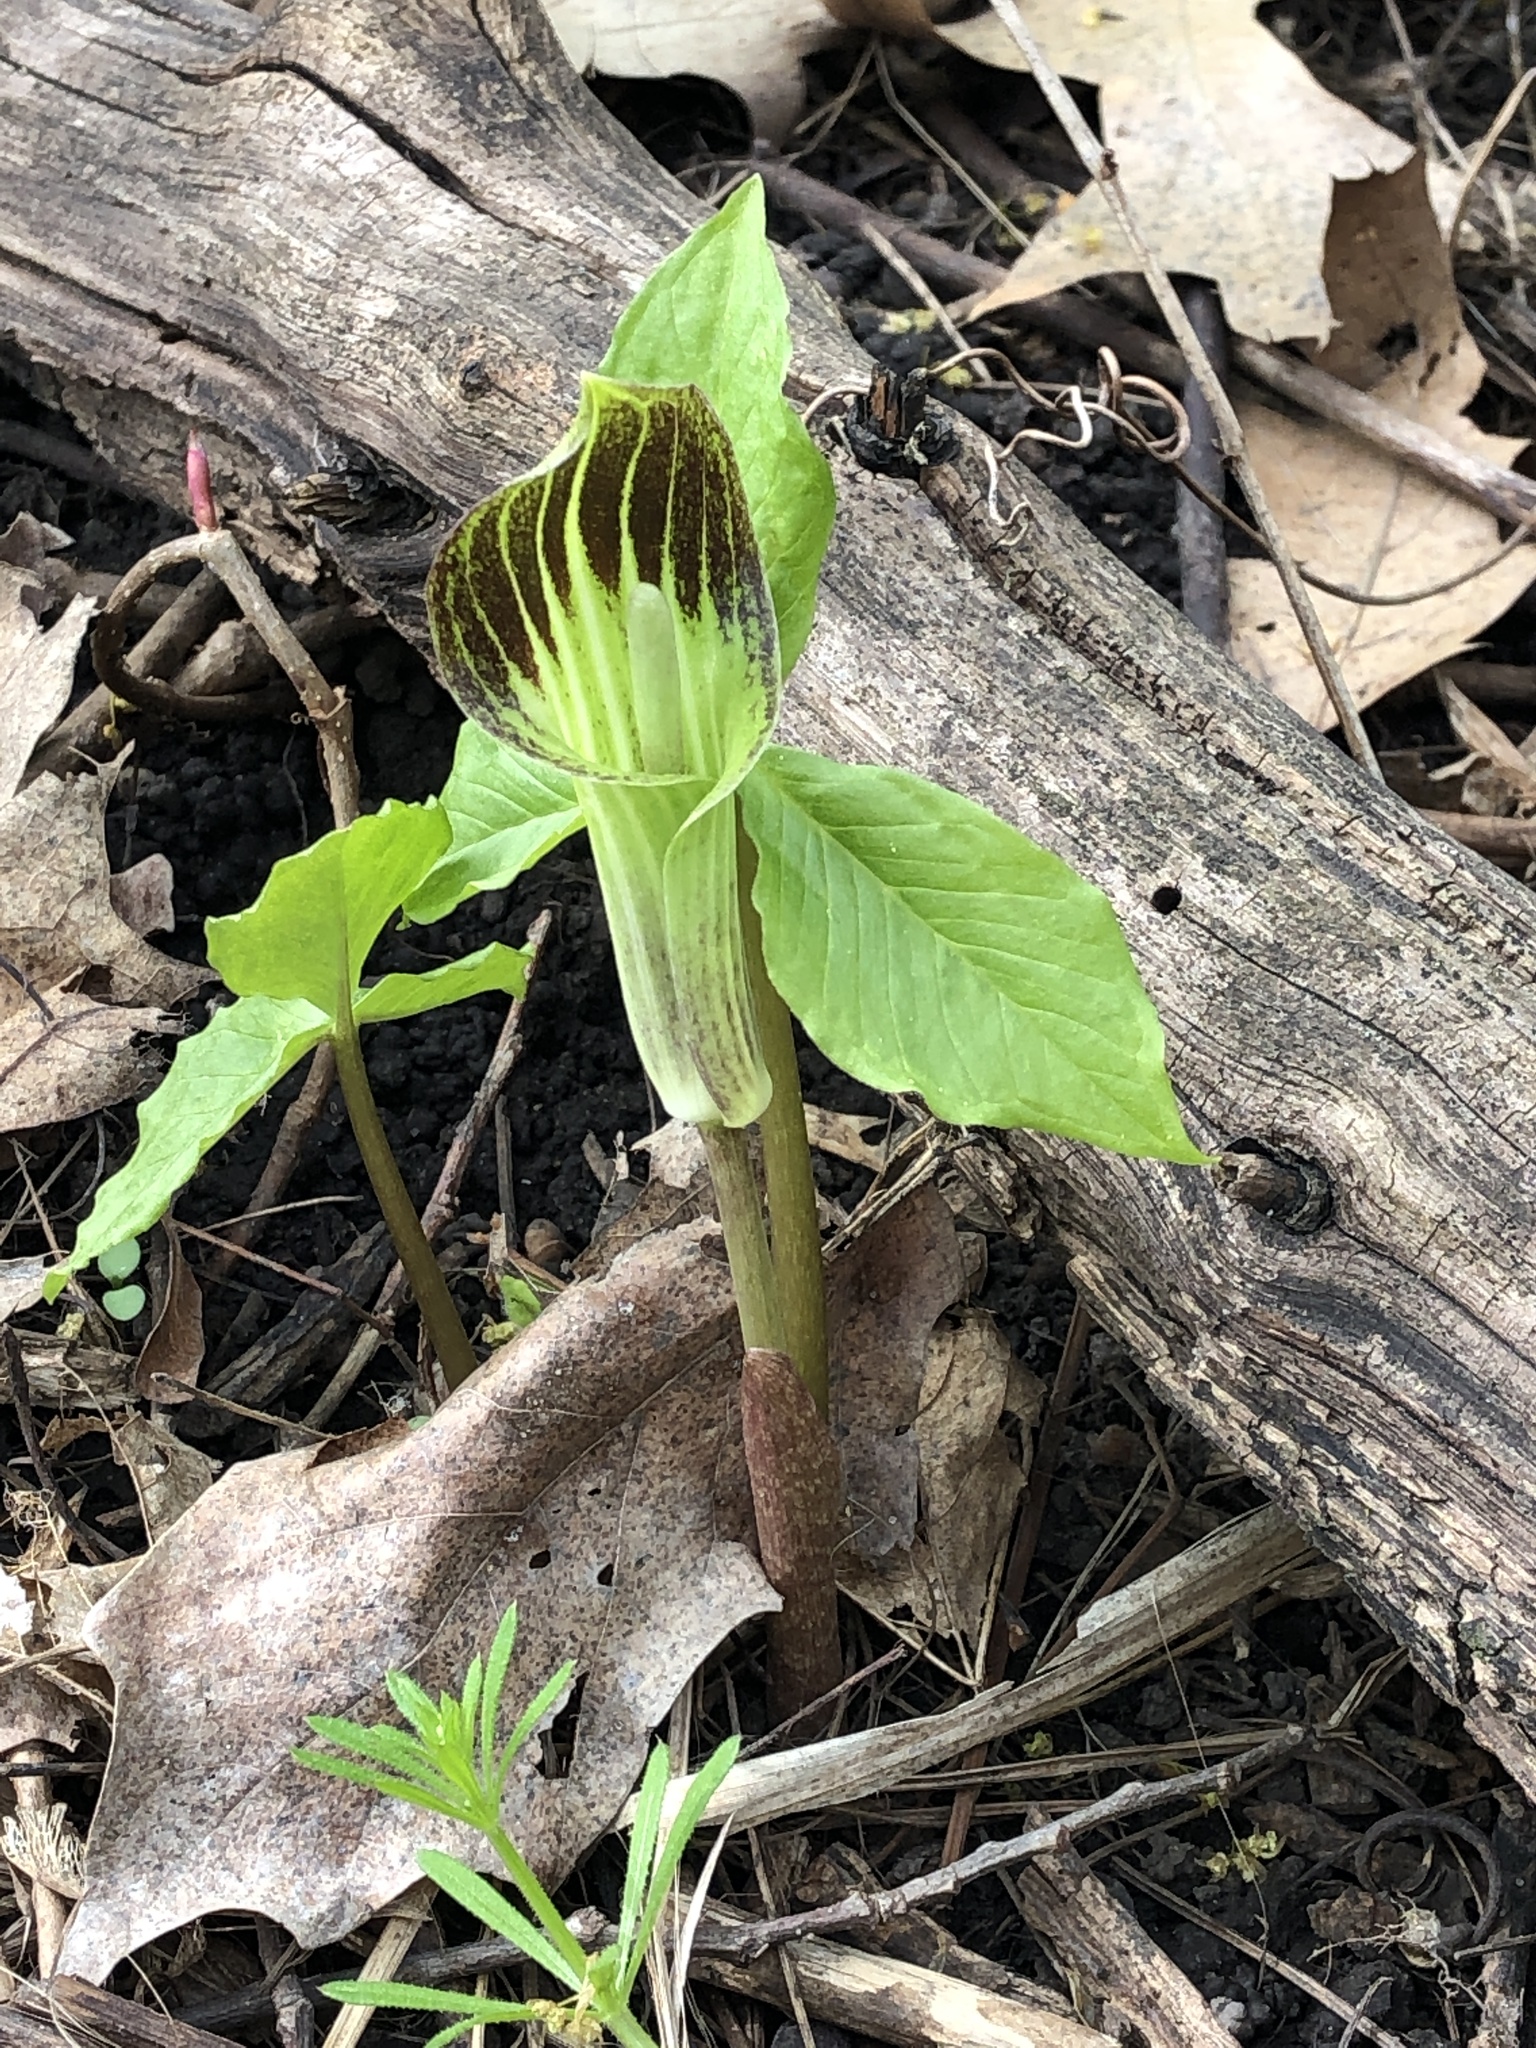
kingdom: Plantae
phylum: Tracheophyta
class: Liliopsida
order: Alismatales
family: Araceae
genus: Arisaema
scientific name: Arisaema triphyllum
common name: Jack-in-the-pulpit
